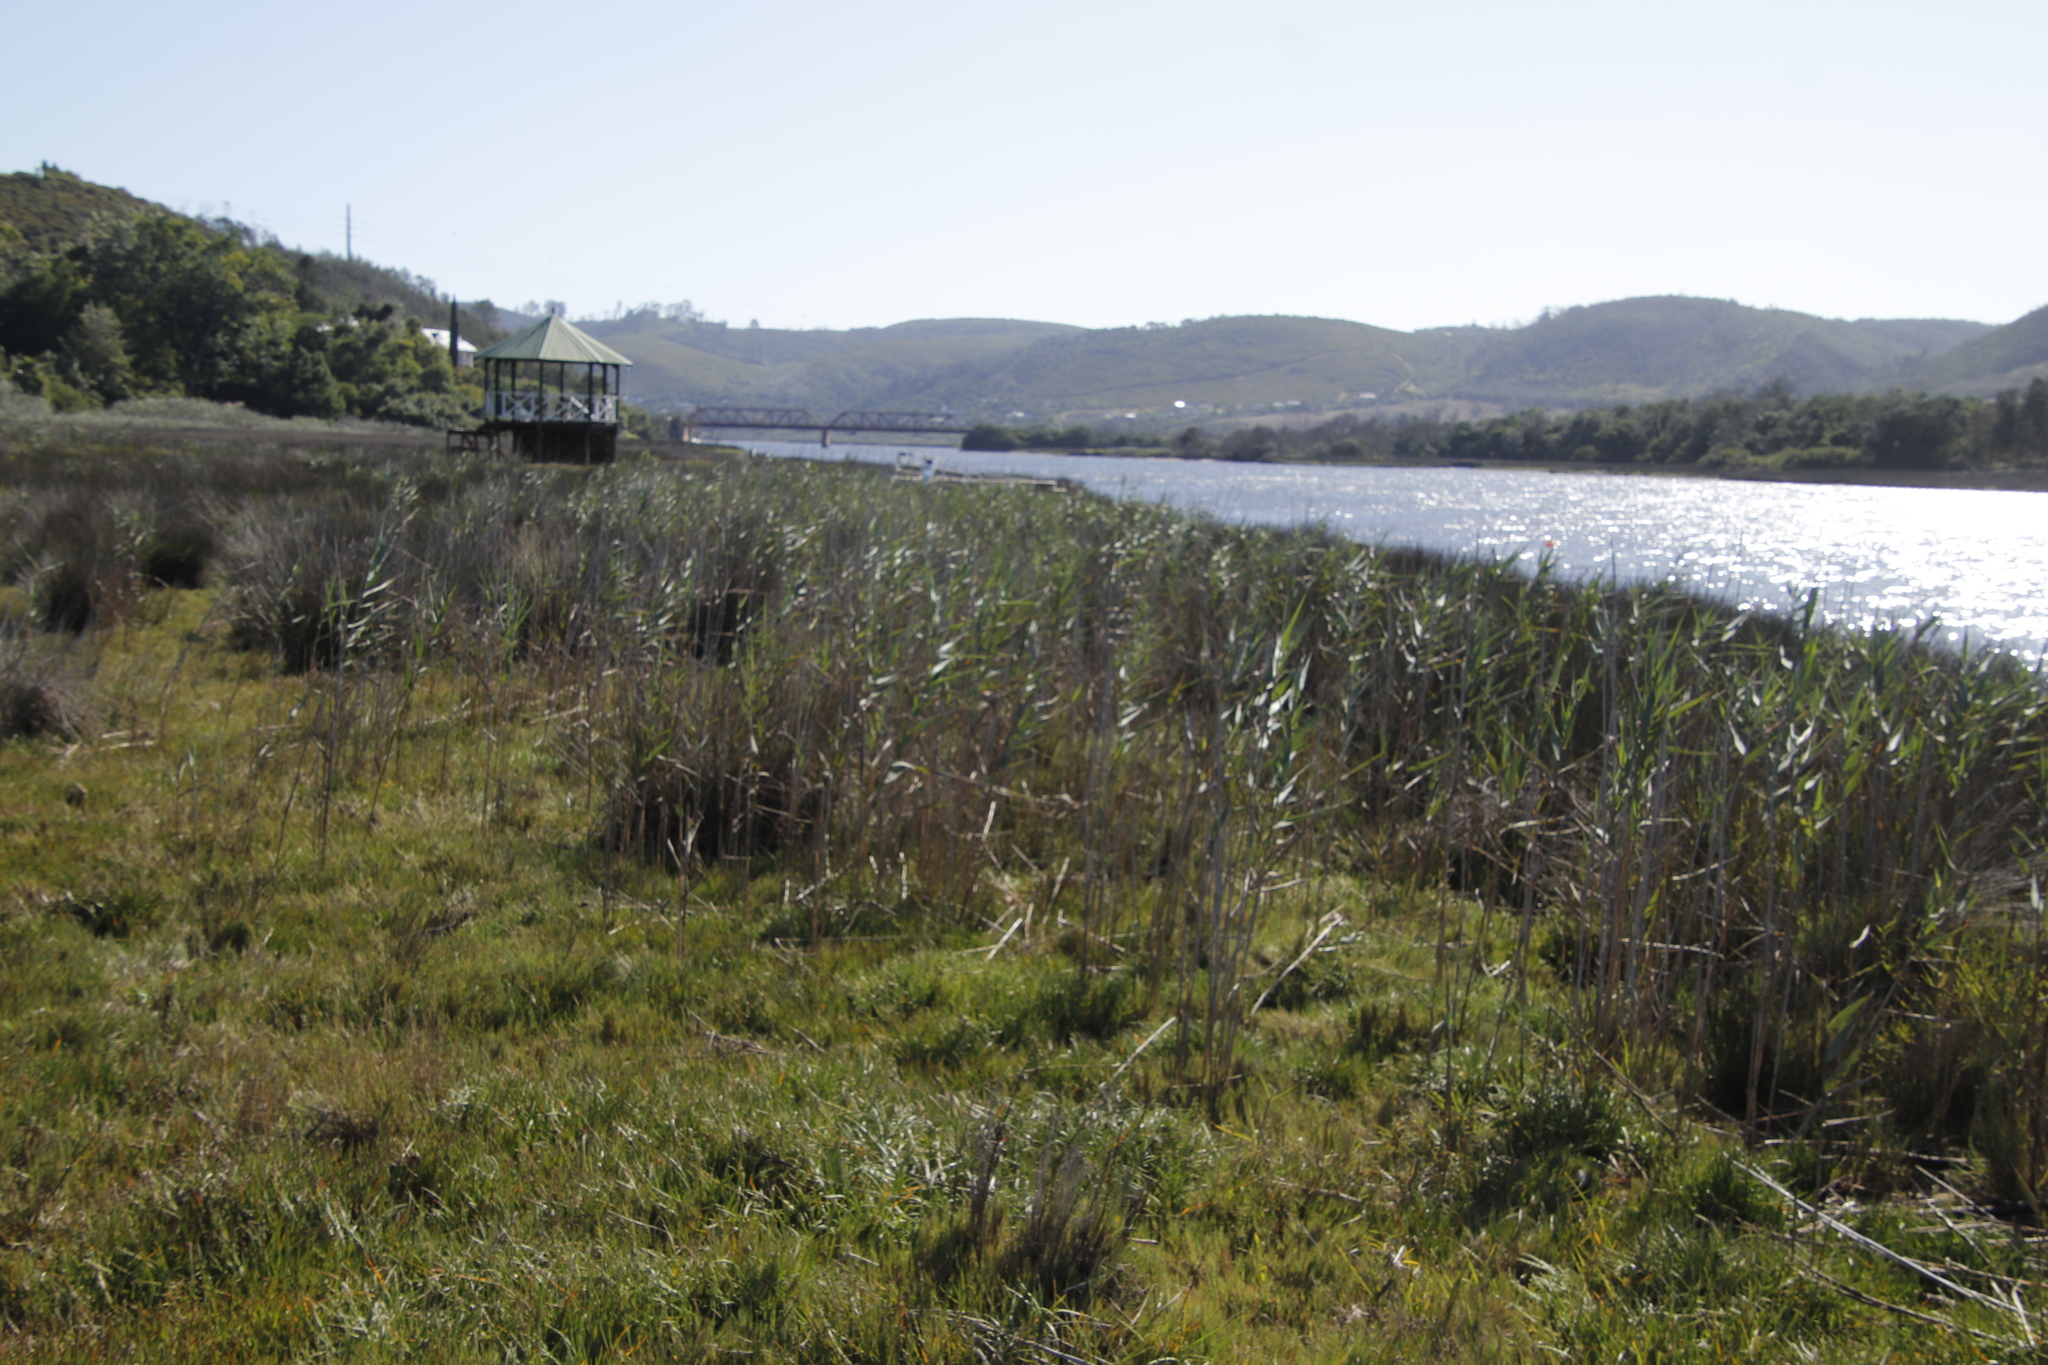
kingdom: Plantae
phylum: Tracheophyta
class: Liliopsida
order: Poales
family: Poaceae
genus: Phragmites
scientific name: Phragmites australis
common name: Common reed
